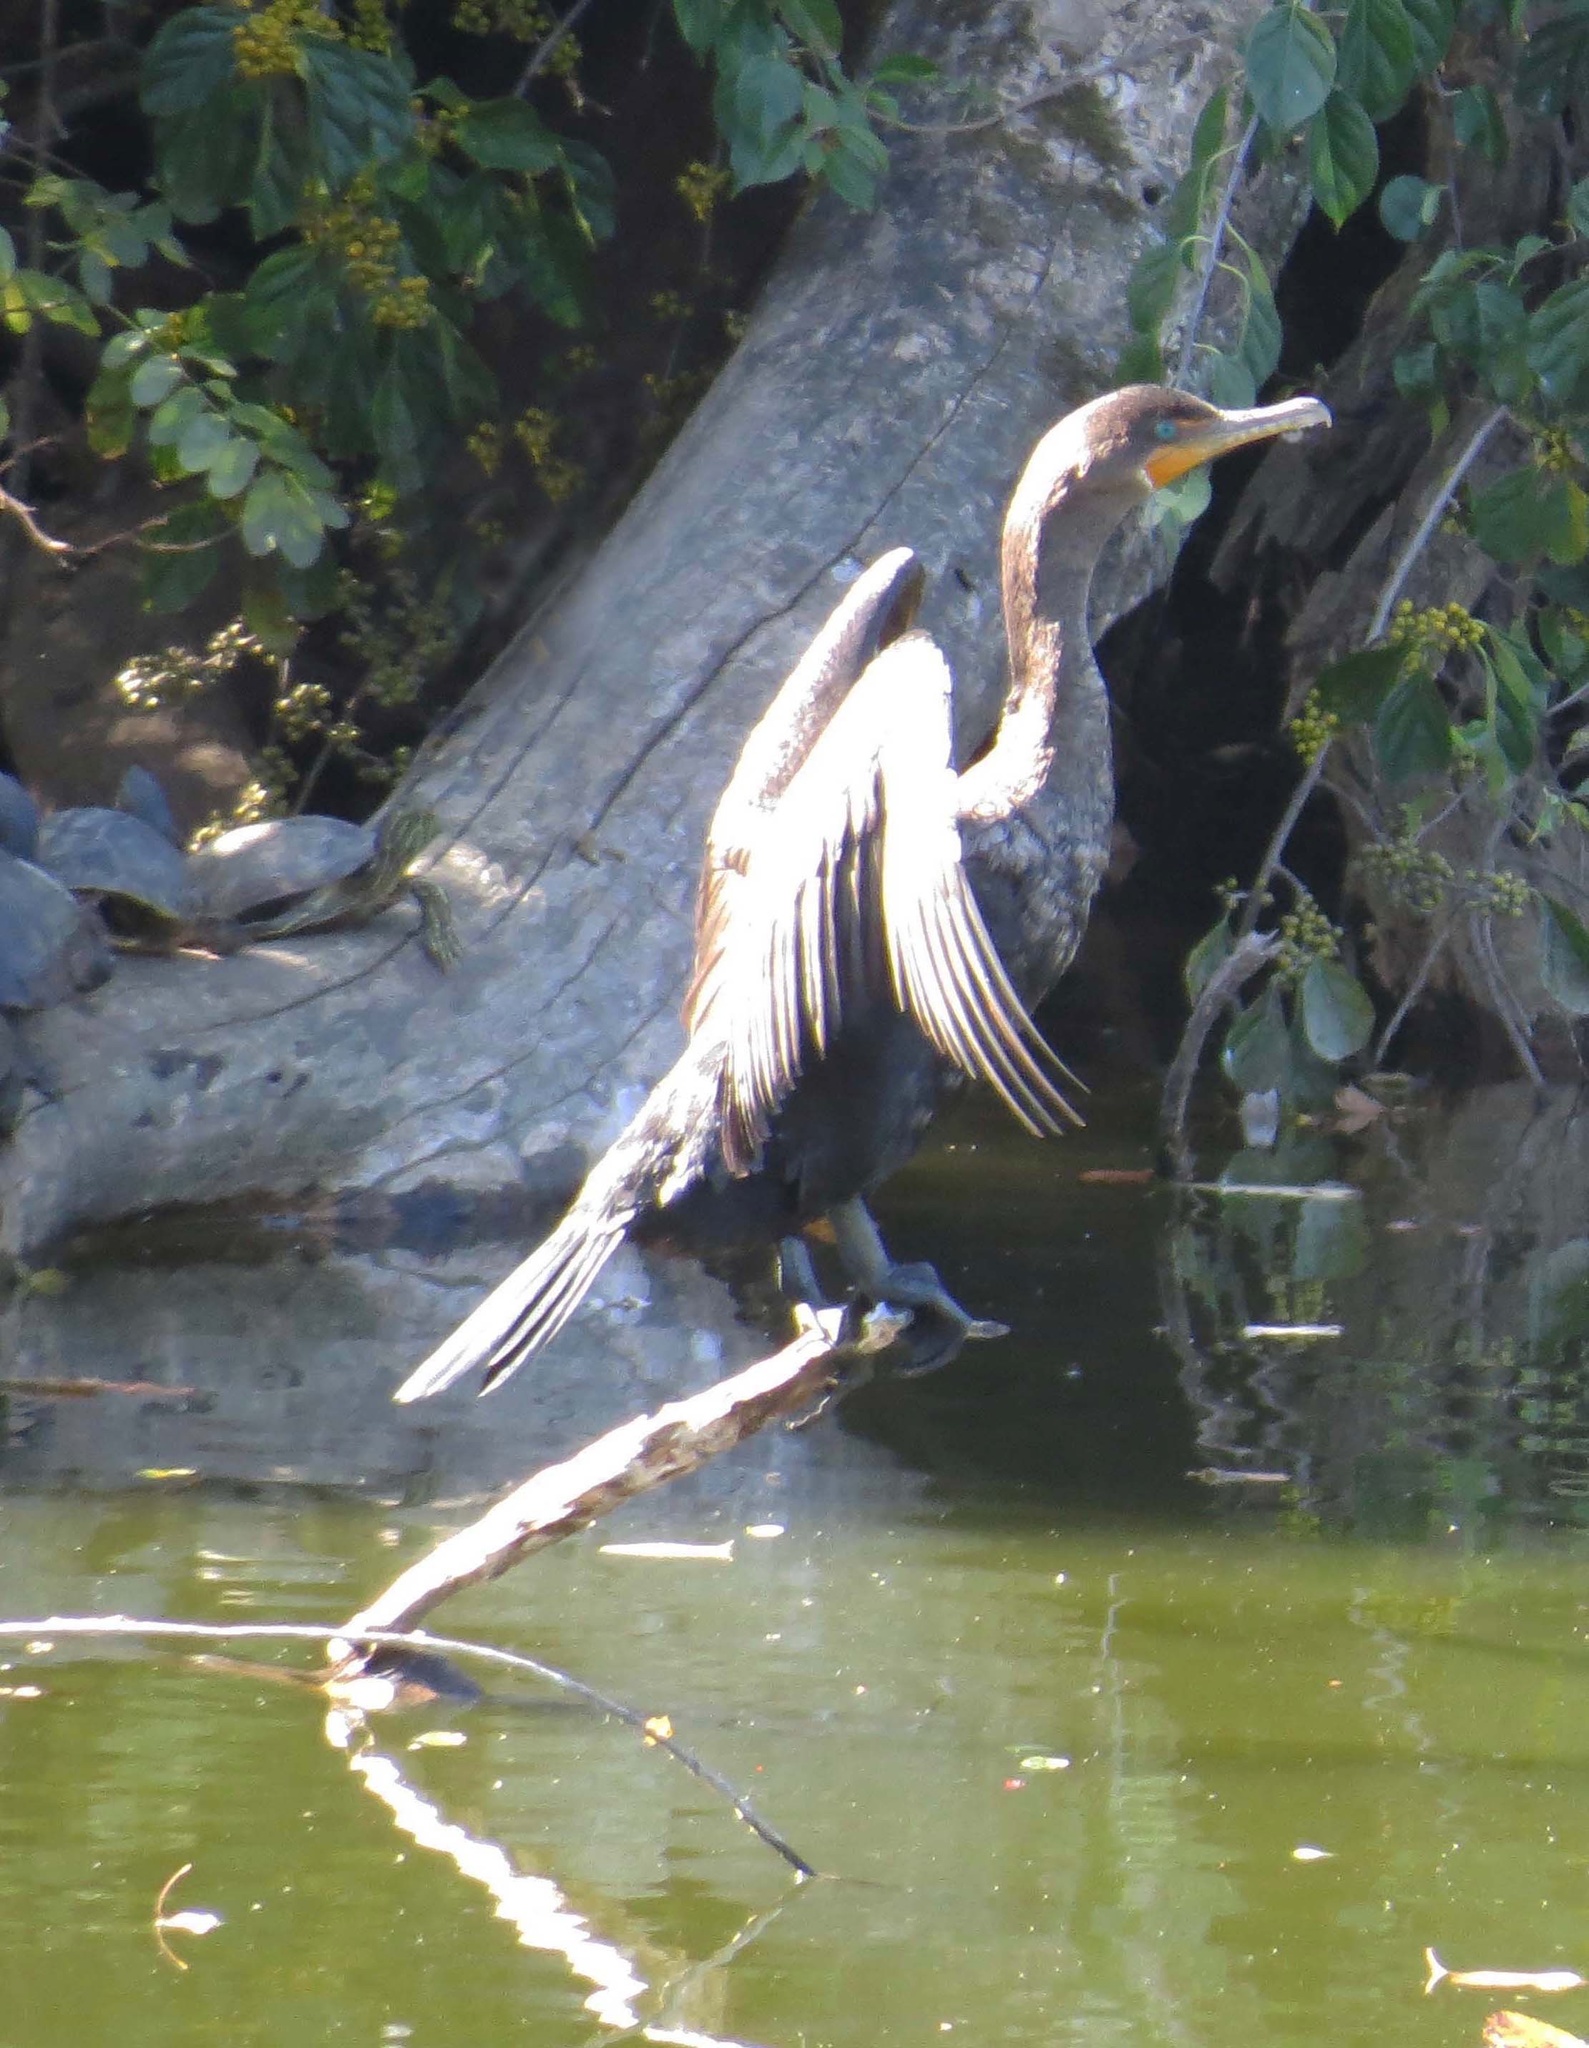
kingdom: Animalia
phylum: Chordata
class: Aves
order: Suliformes
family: Phalacrocoracidae
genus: Phalacrocorax
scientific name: Phalacrocorax auritus
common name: Double-crested cormorant
